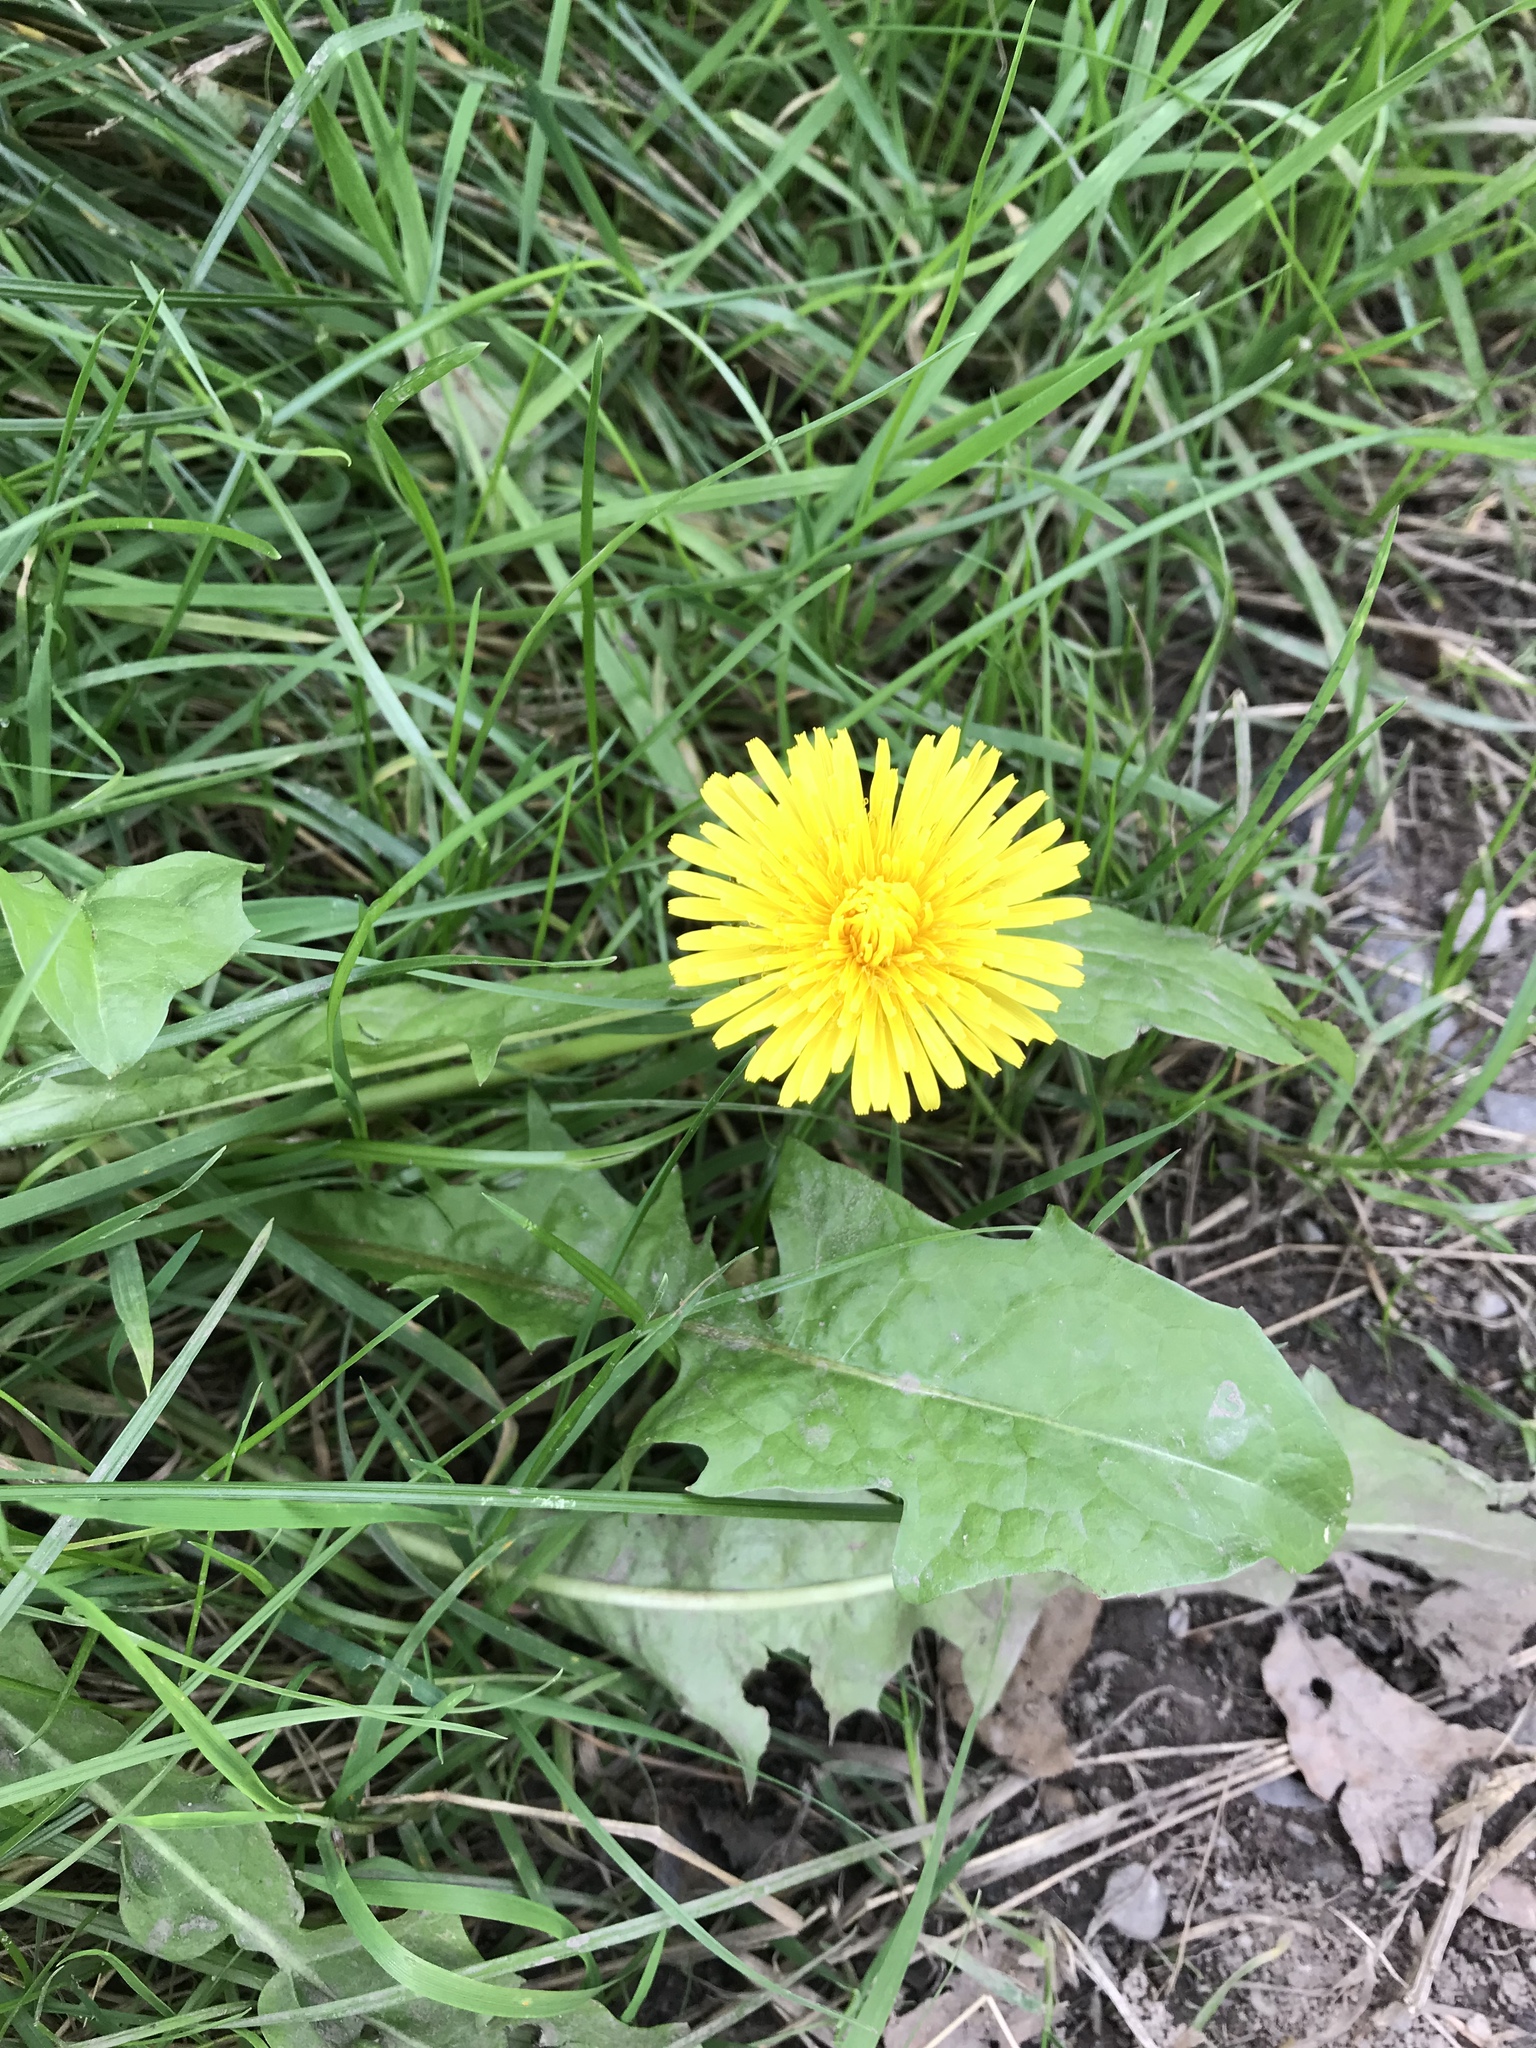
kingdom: Plantae
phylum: Tracheophyta
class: Magnoliopsida
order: Asterales
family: Asteraceae
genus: Taraxacum
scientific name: Taraxacum
